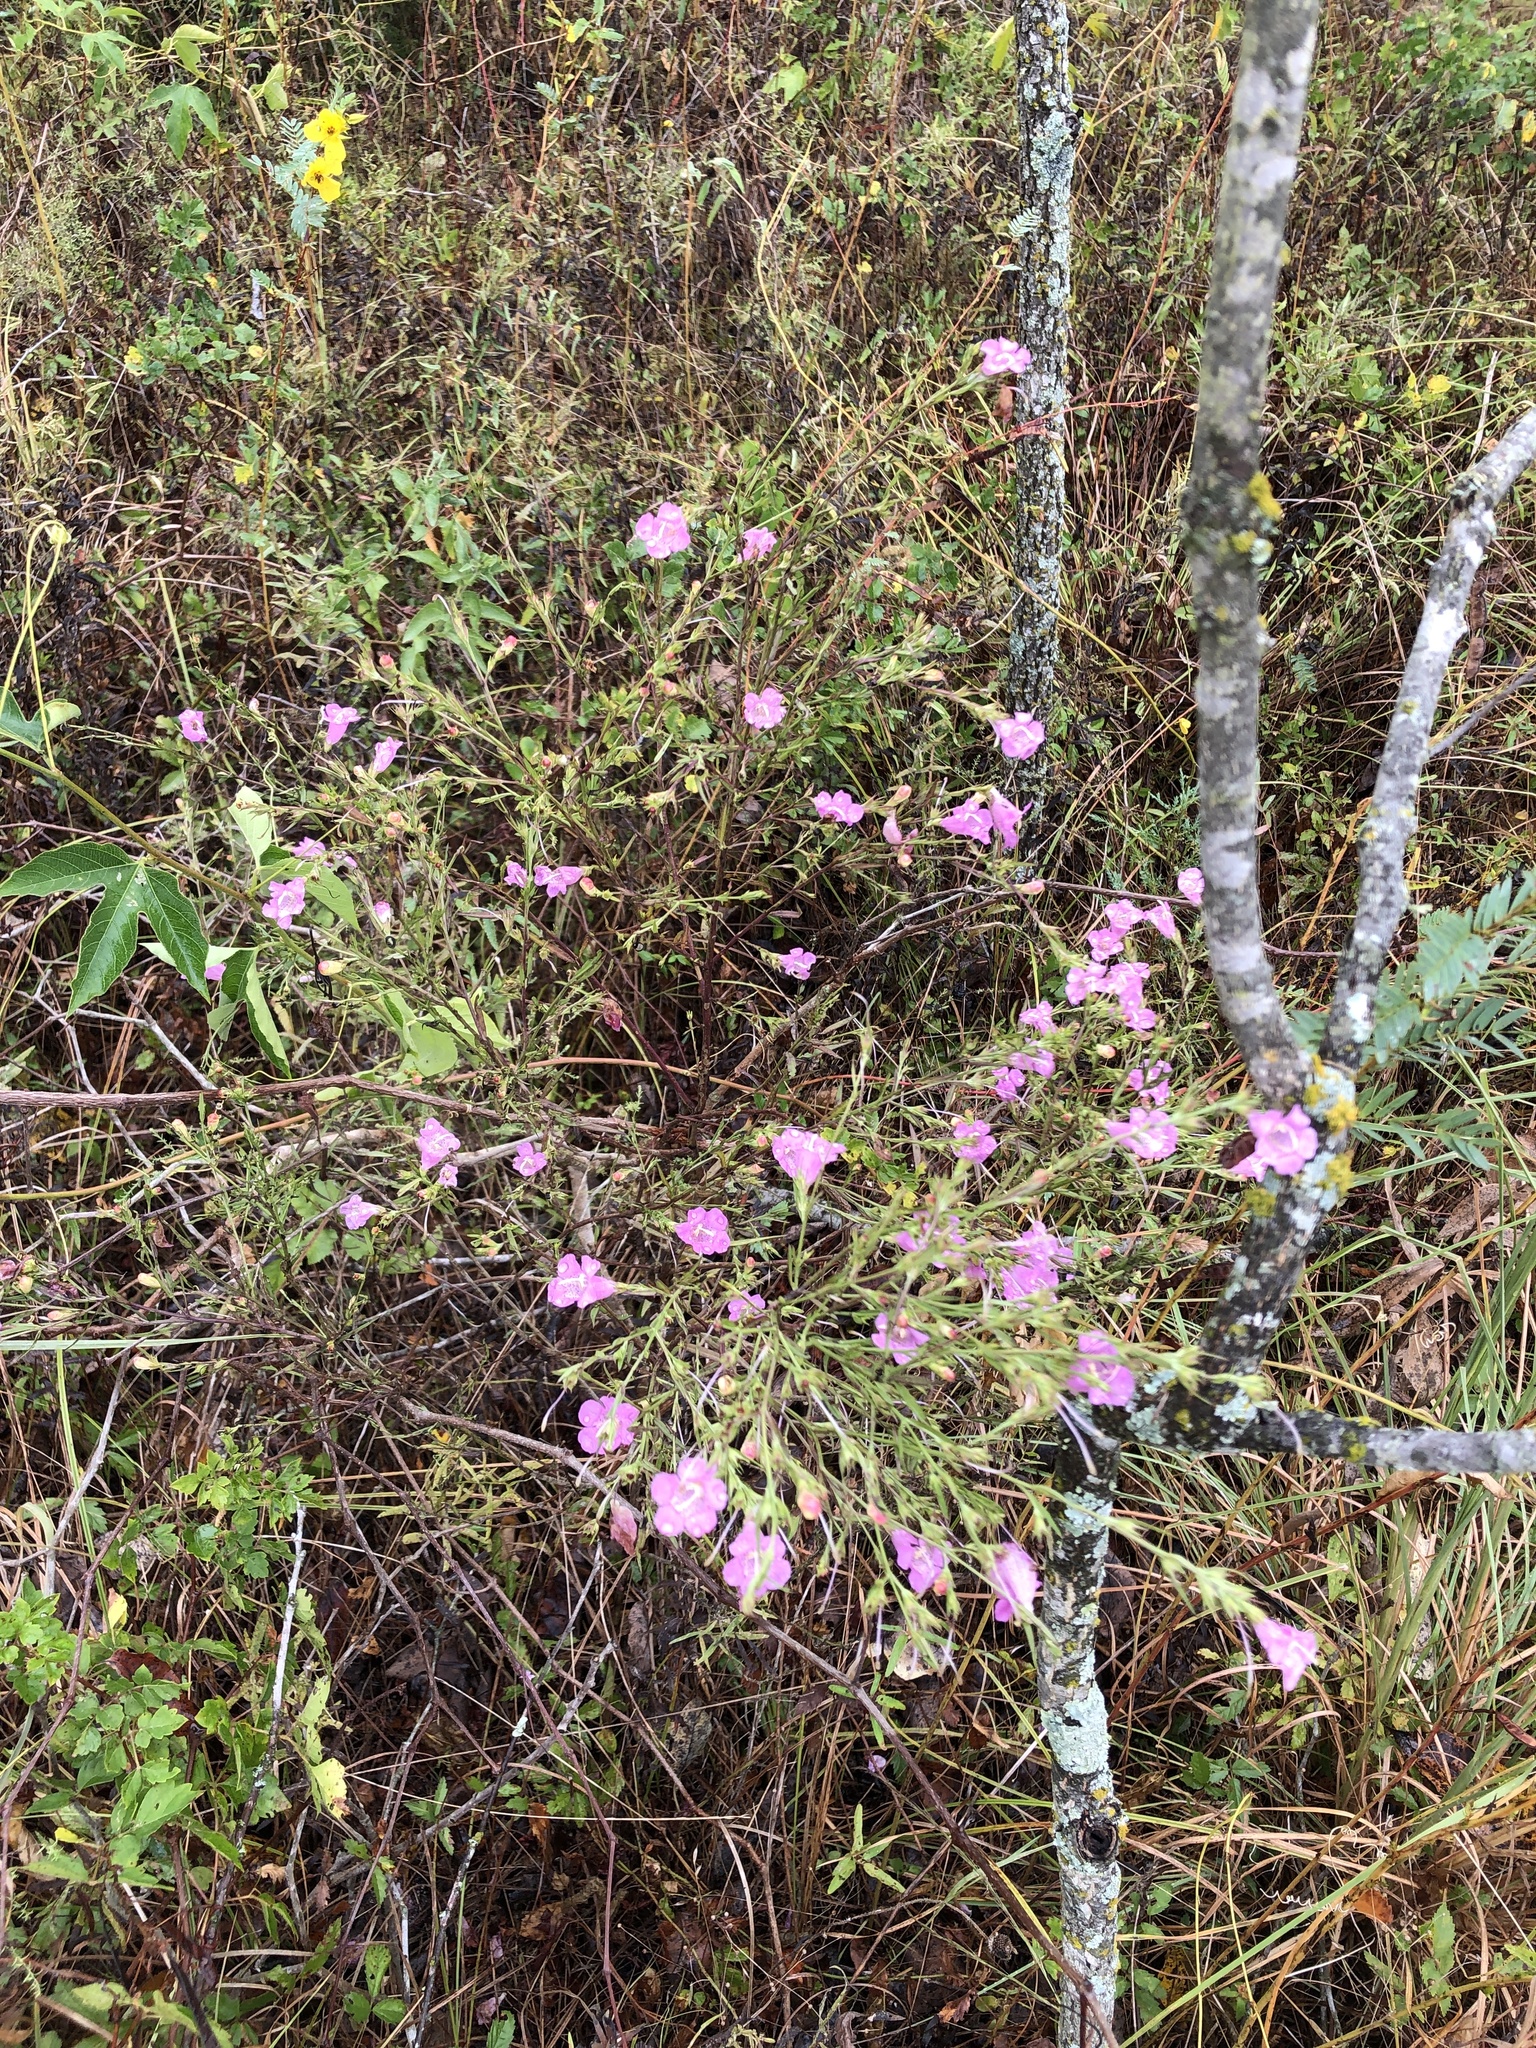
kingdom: Plantae
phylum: Tracheophyta
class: Magnoliopsida
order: Lamiales
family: Orobanchaceae
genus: Agalinis
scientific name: Agalinis heterophylla
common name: Prairie agalinis
